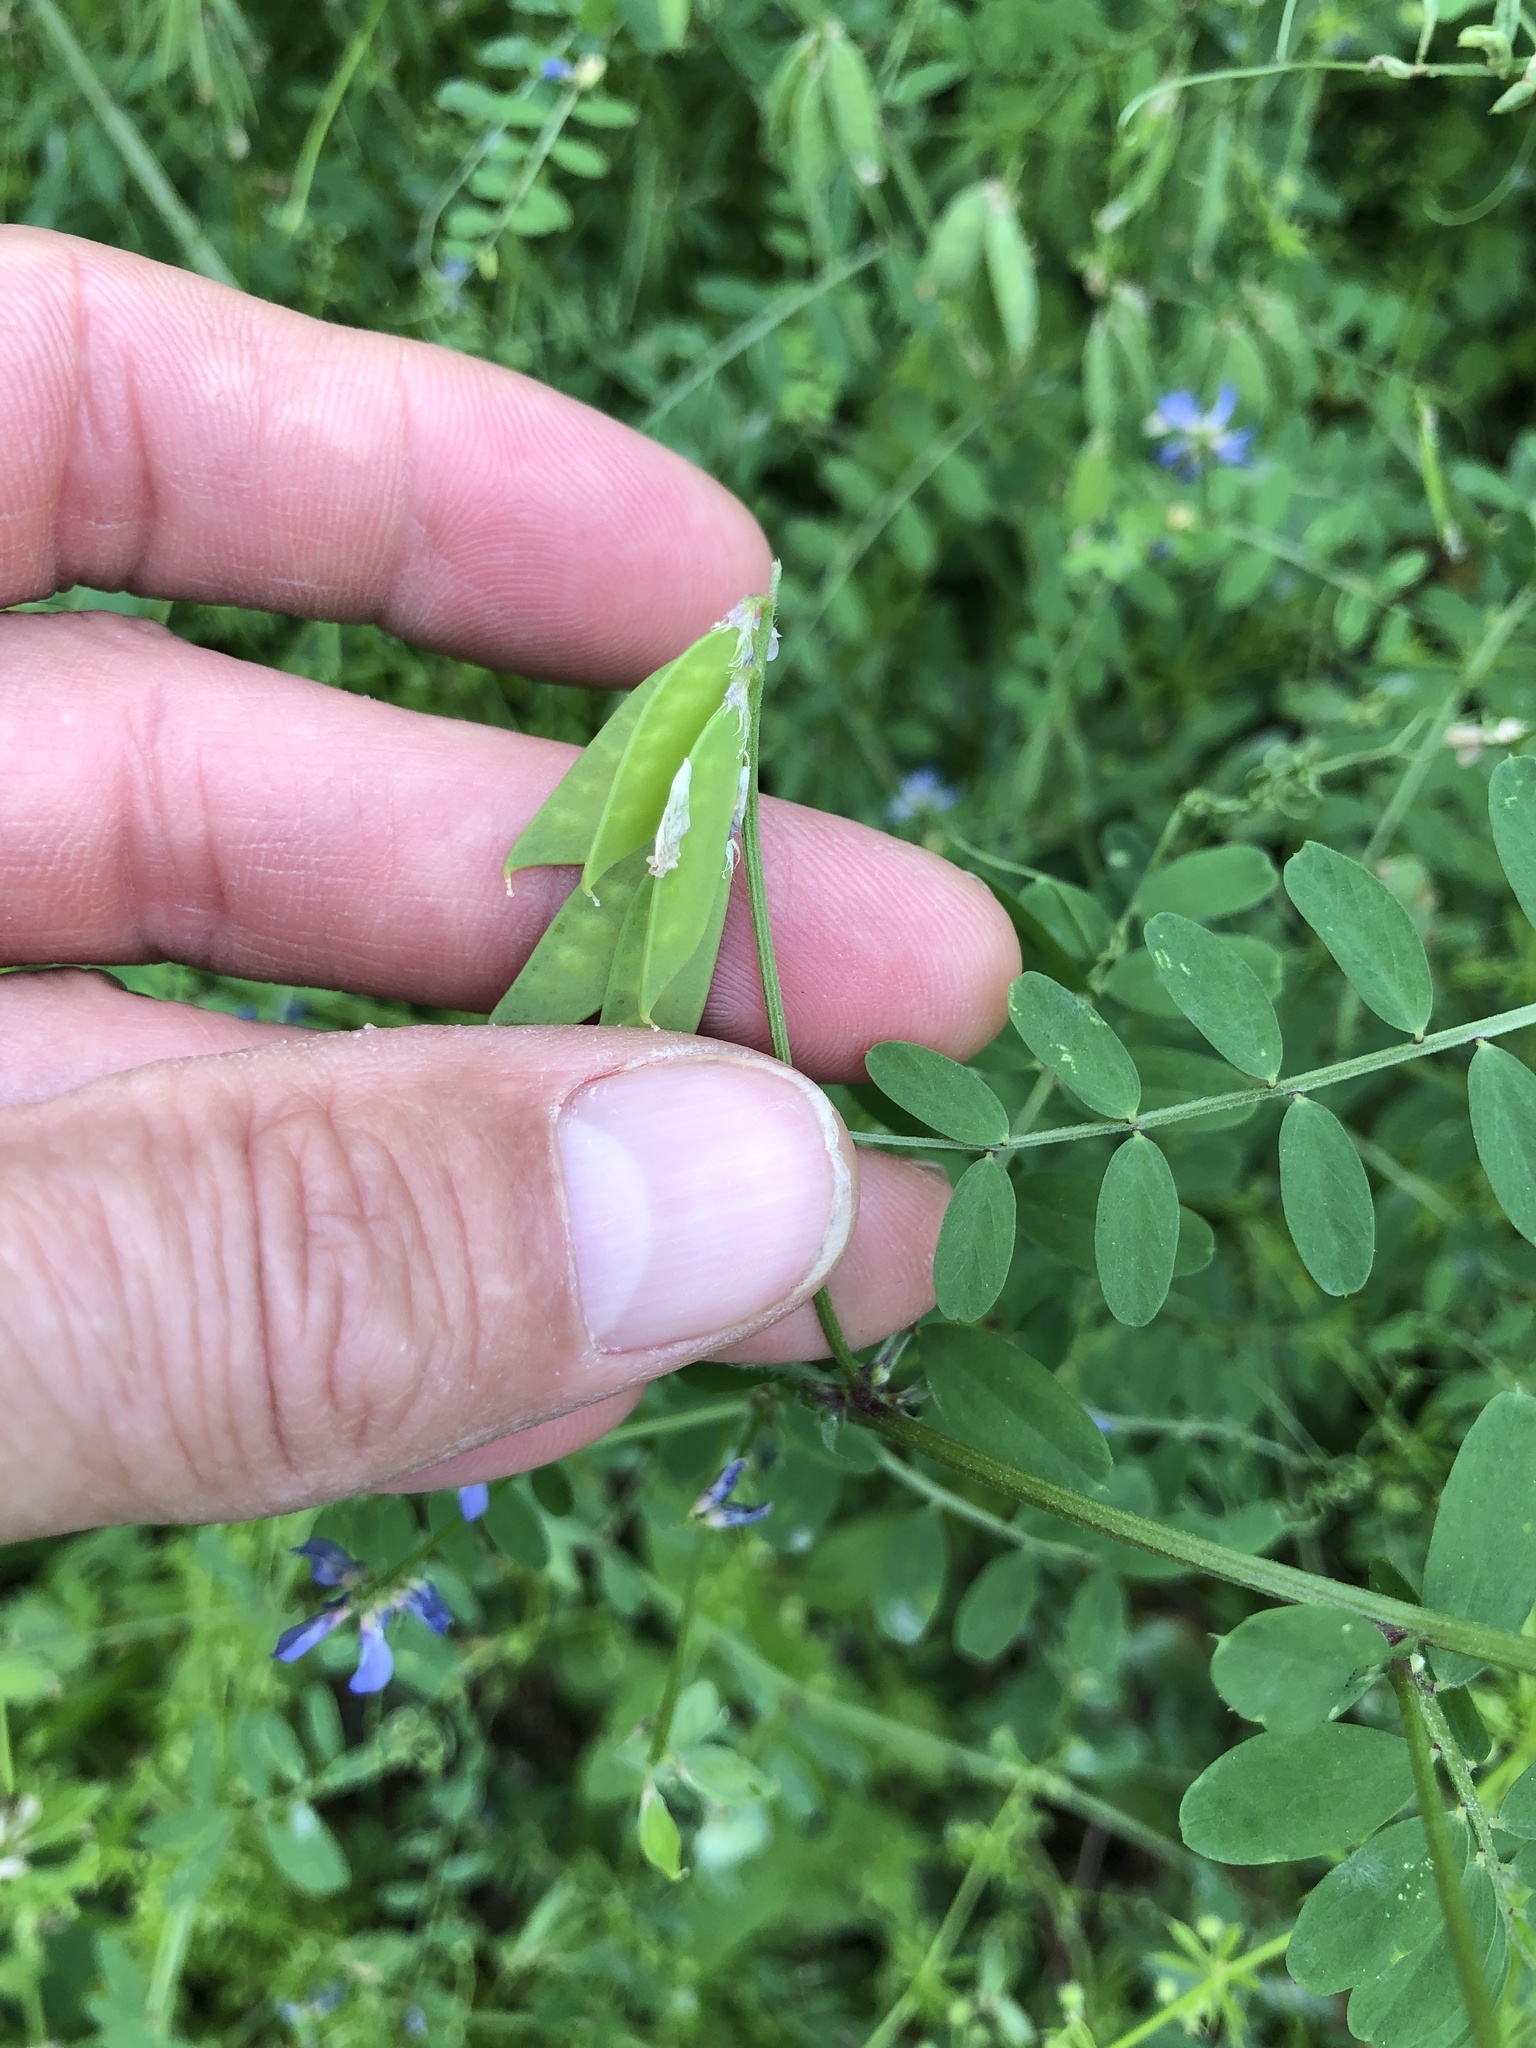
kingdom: Plantae
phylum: Tracheophyta
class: Magnoliopsida
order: Fabales
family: Fabaceae
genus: Vicia
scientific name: Vicia ludoviciana
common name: Louisiana vetch
